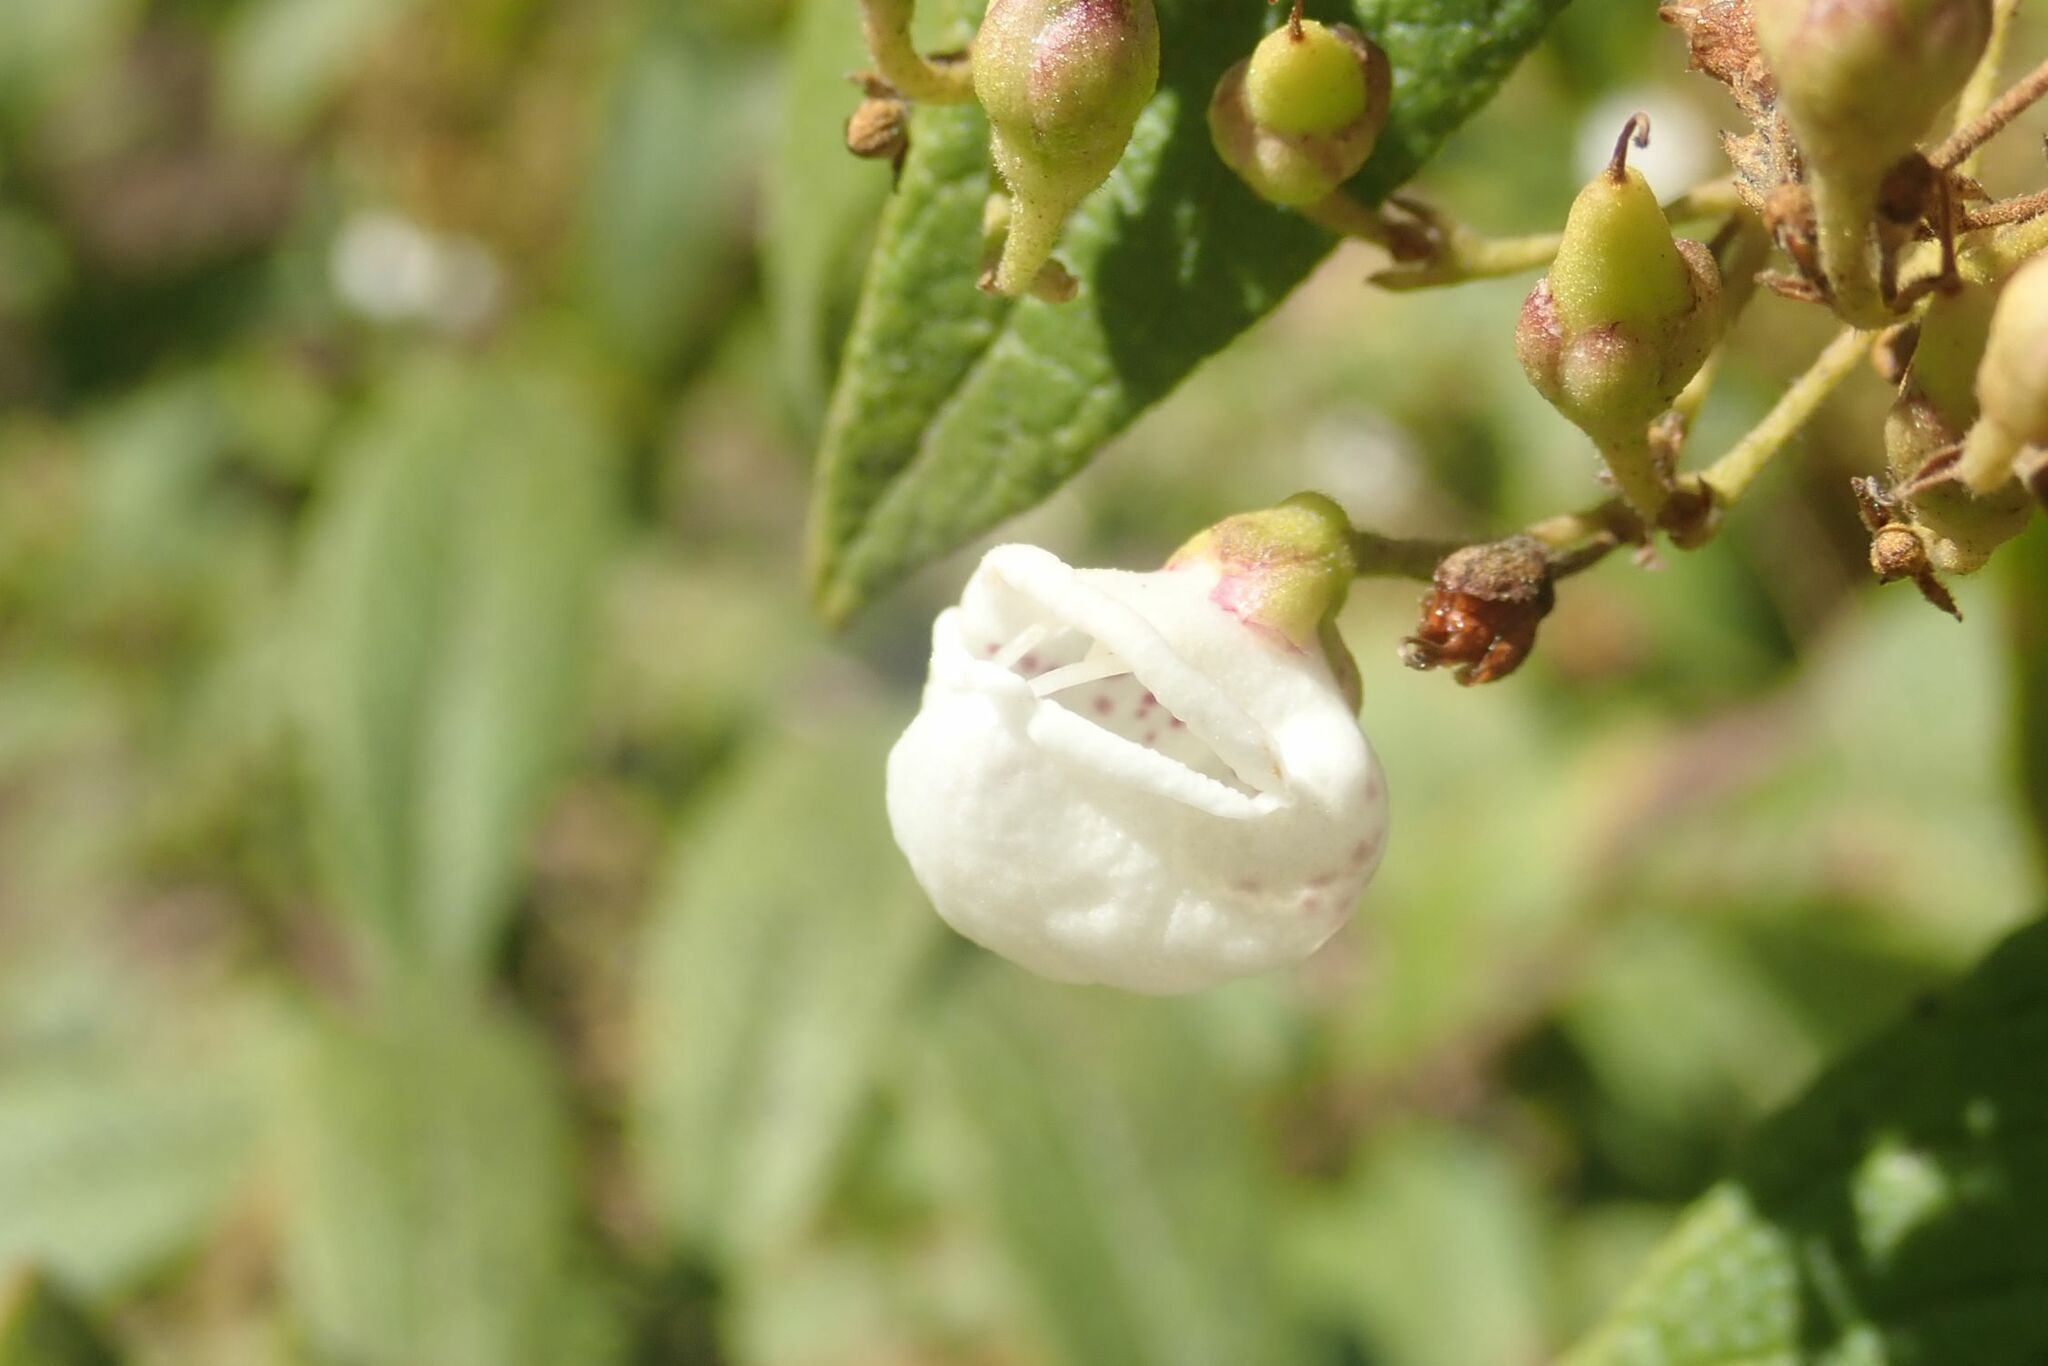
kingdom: Plantae
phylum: Tracheophyta
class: Magnoliopsida
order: Lamiales
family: Stilbaceae
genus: Bowkeria
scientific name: Bowkeria cymosa
